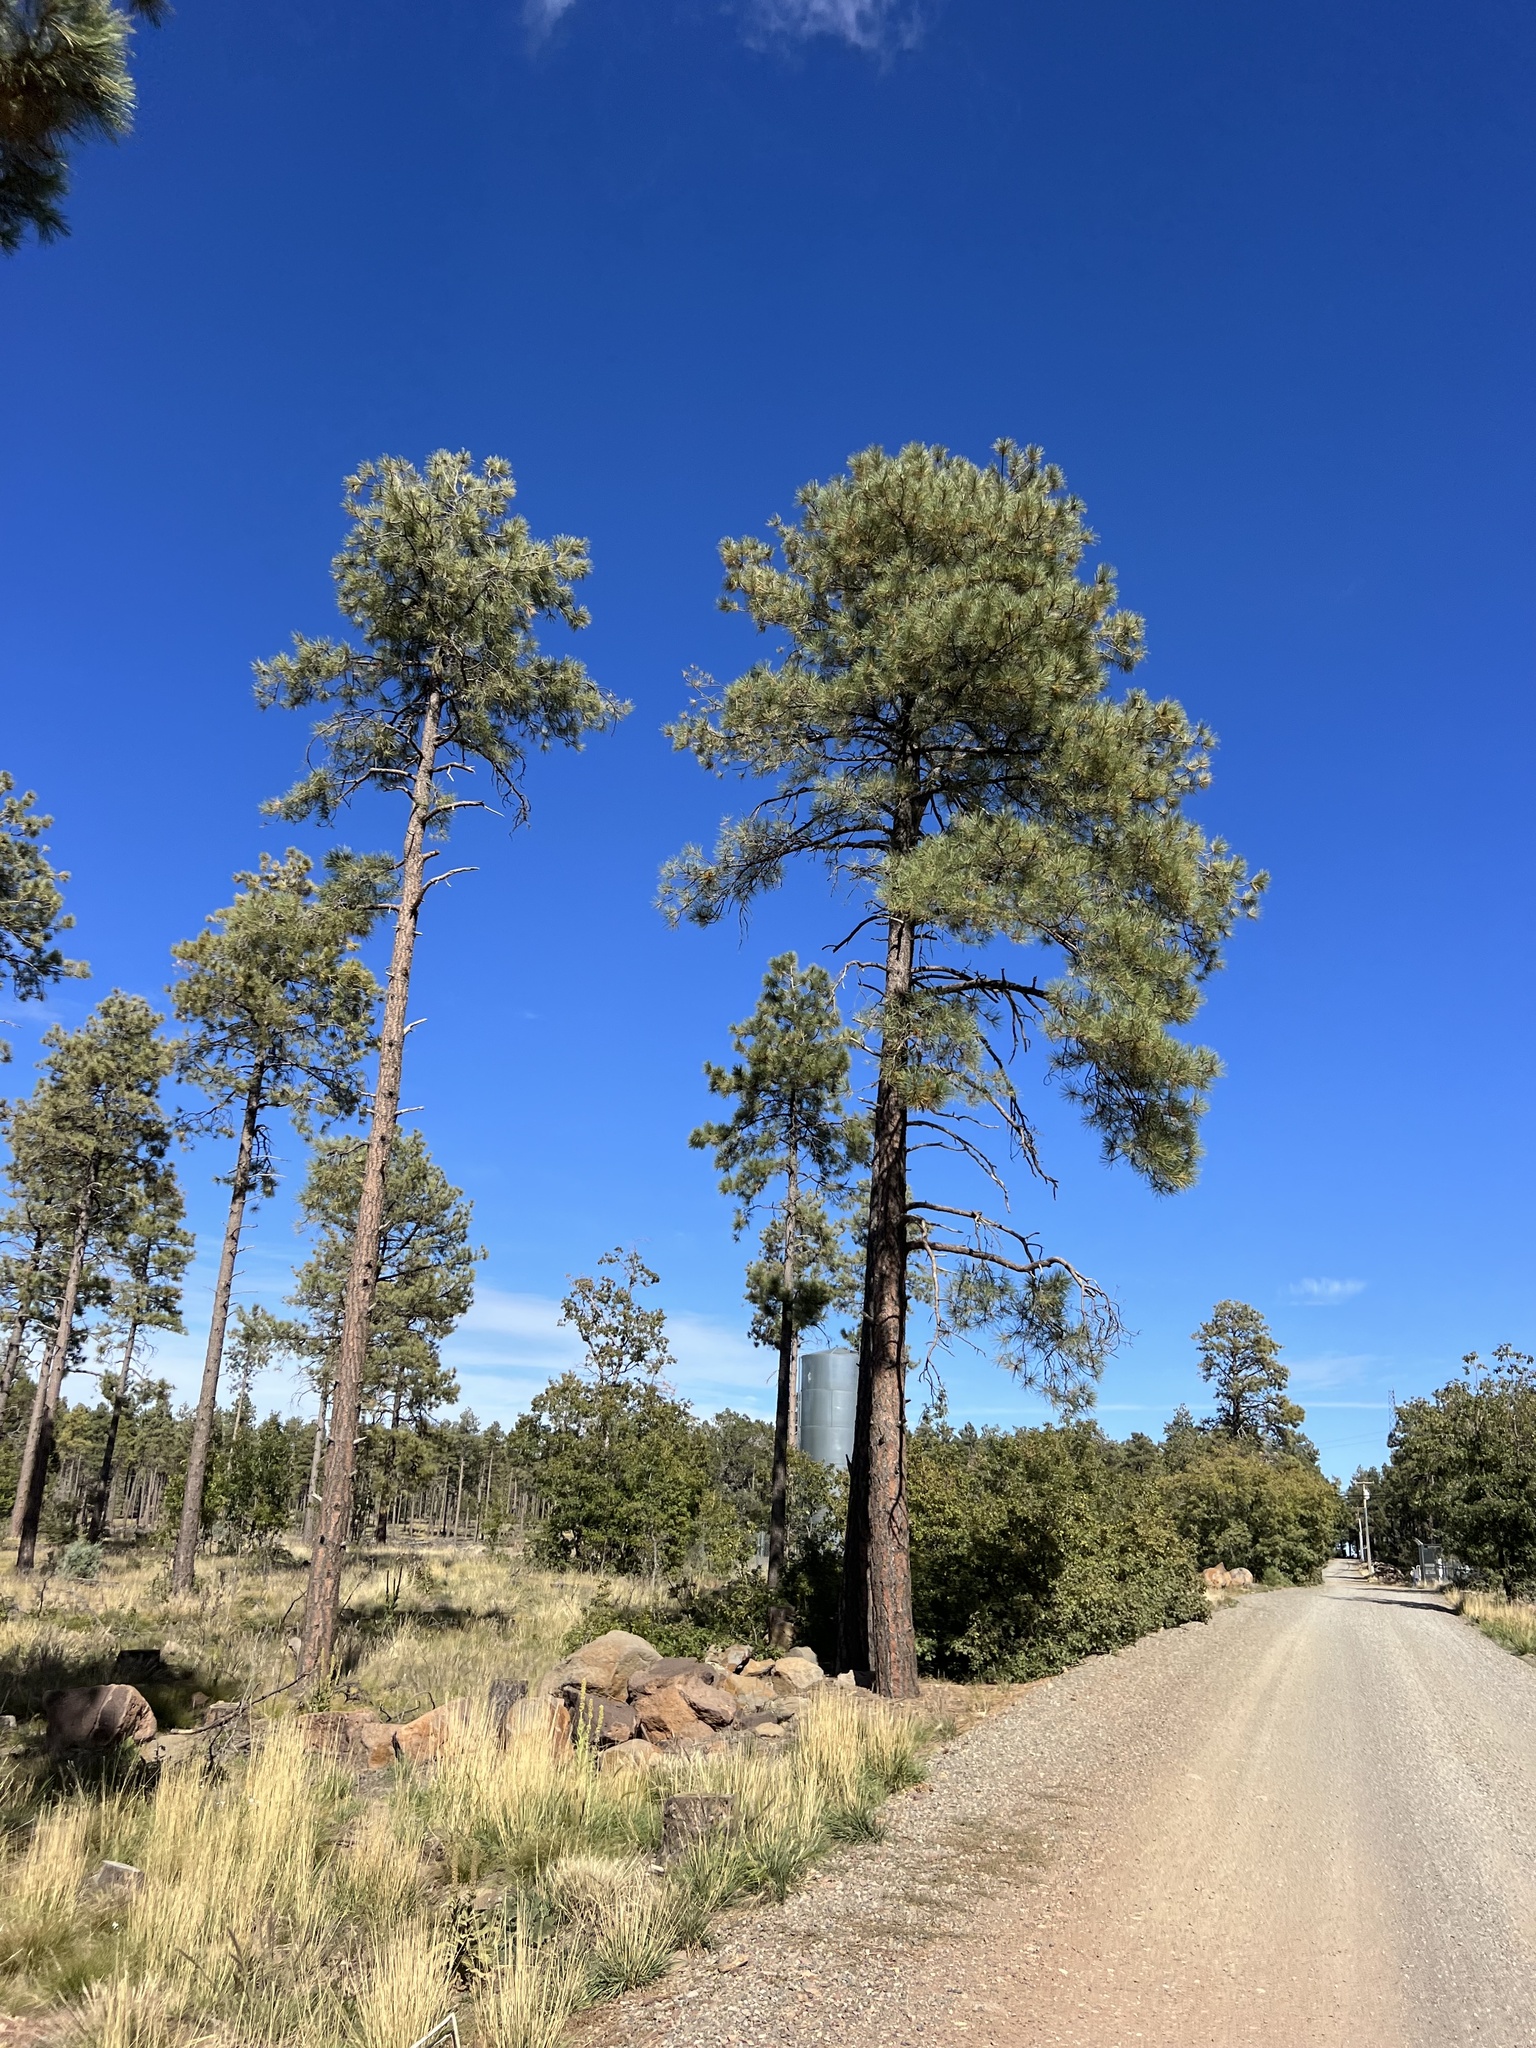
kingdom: Plantae
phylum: Tracheophyta
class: Pinopsida
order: Pinales
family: Pinaceae
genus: Pinus
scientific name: Pinus ponderosa
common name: Western yellow-pine
